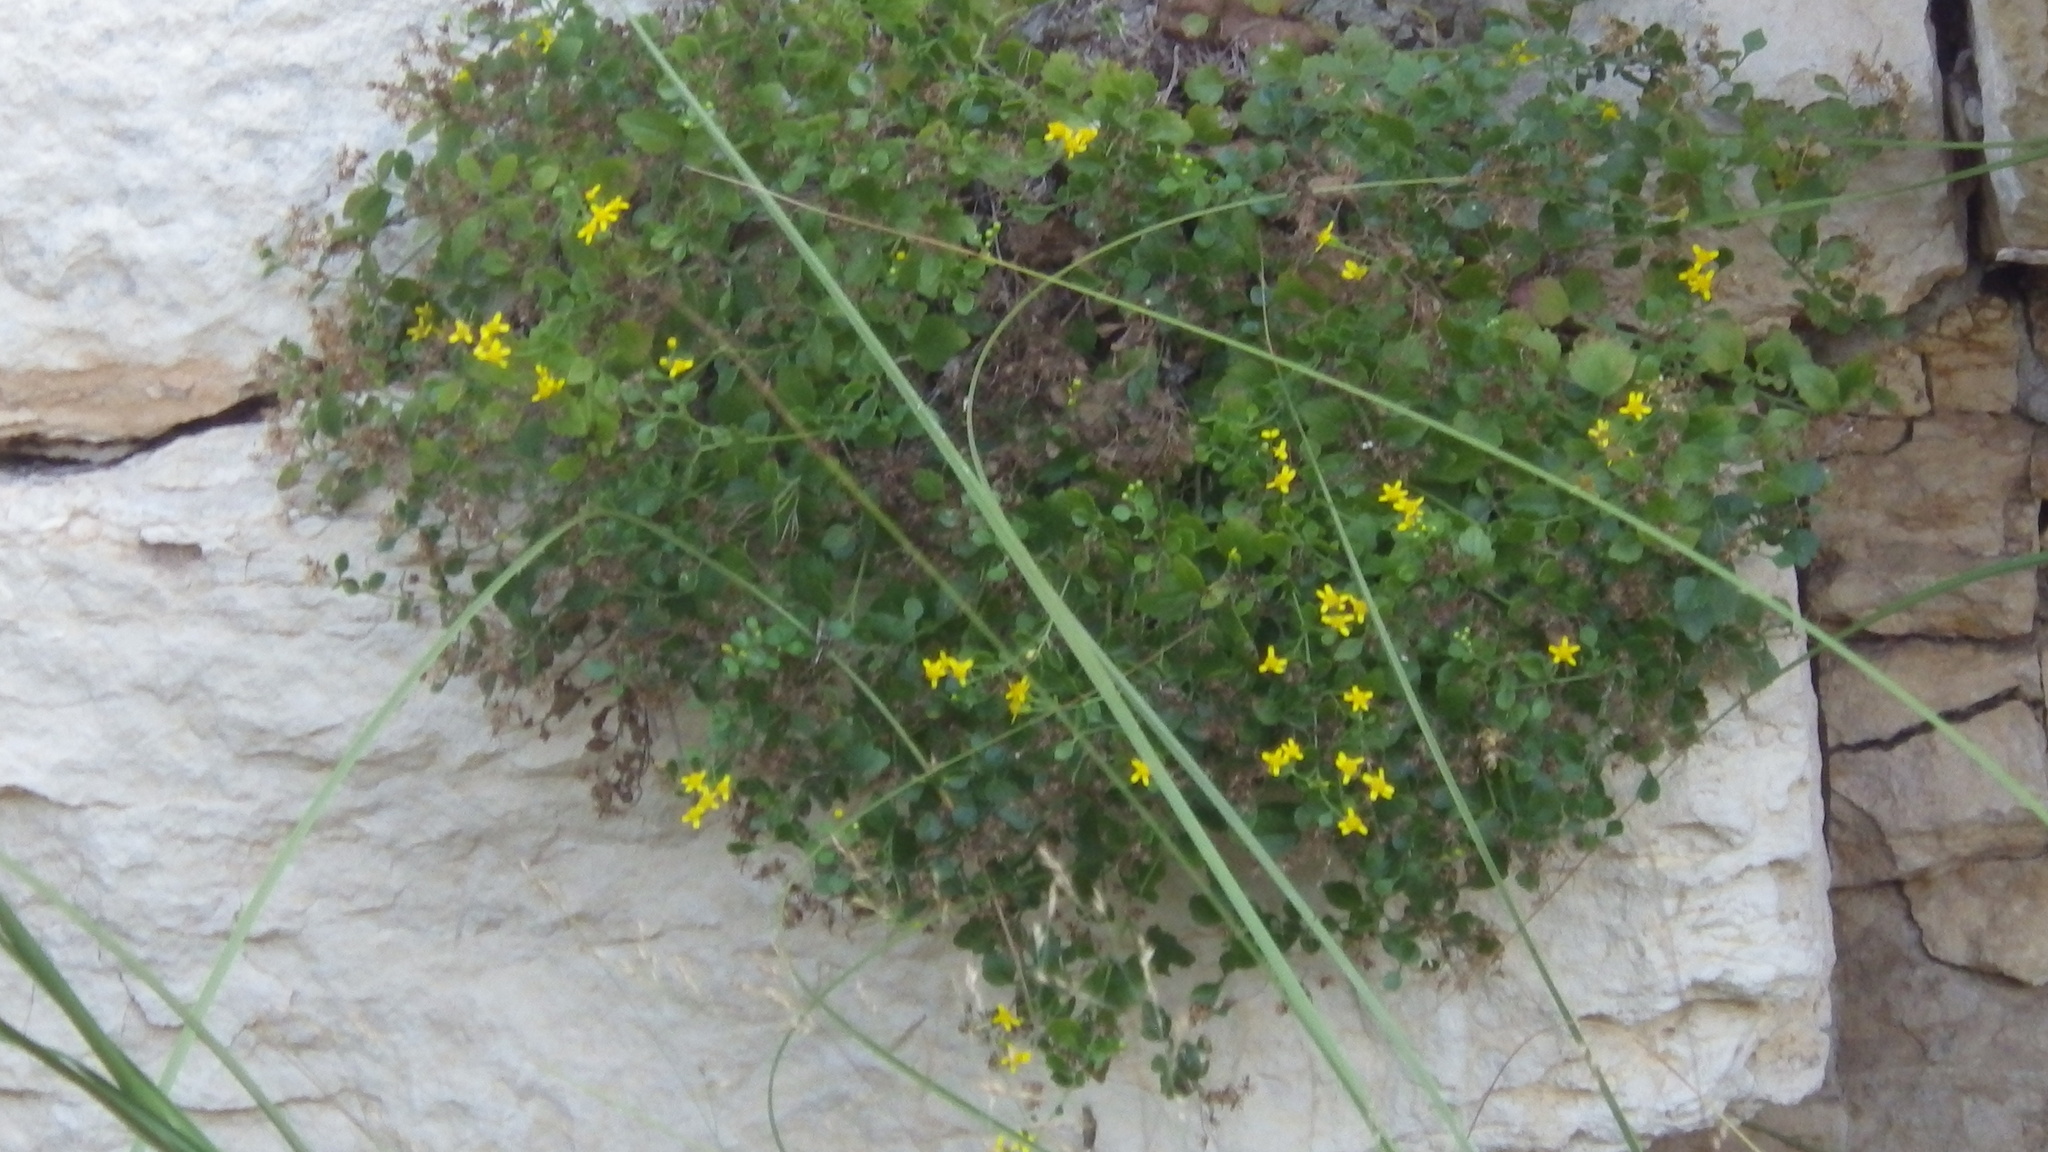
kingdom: Plantae
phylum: Tracheophyta
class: Magnoliopsida
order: Asterales
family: Asteraceae
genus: Laphamia
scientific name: Laphamia lindheimeri
